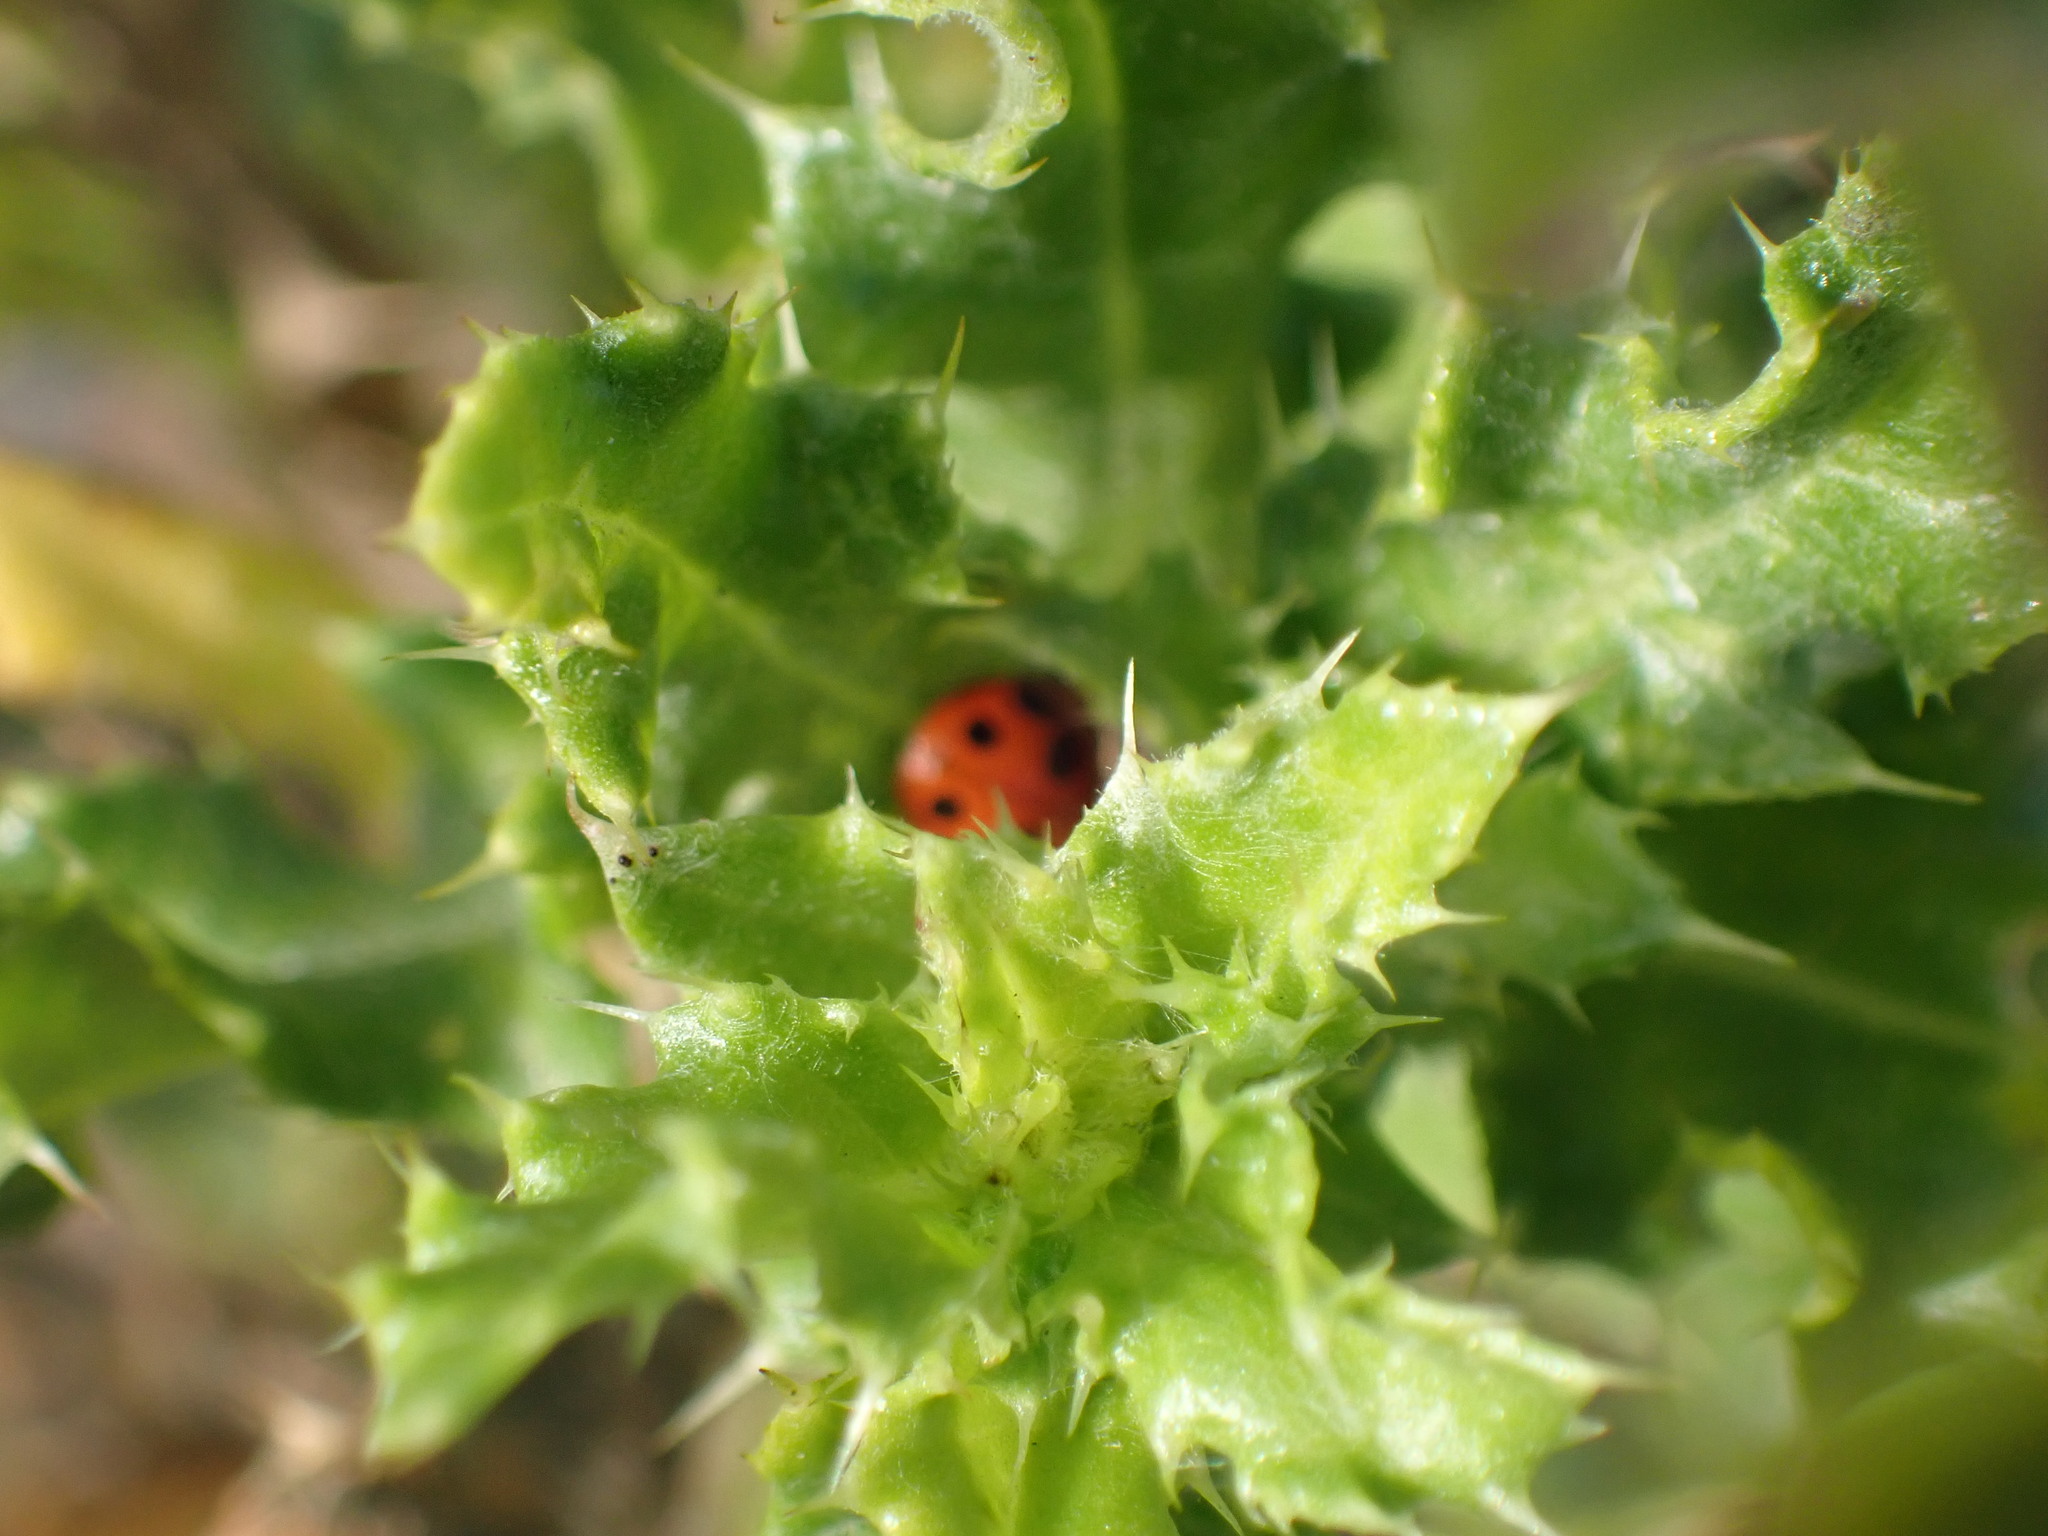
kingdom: Animalia
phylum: Arthropoda
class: Insecta
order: Coleoptera
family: Coccinellidae
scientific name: Coccinellidae
